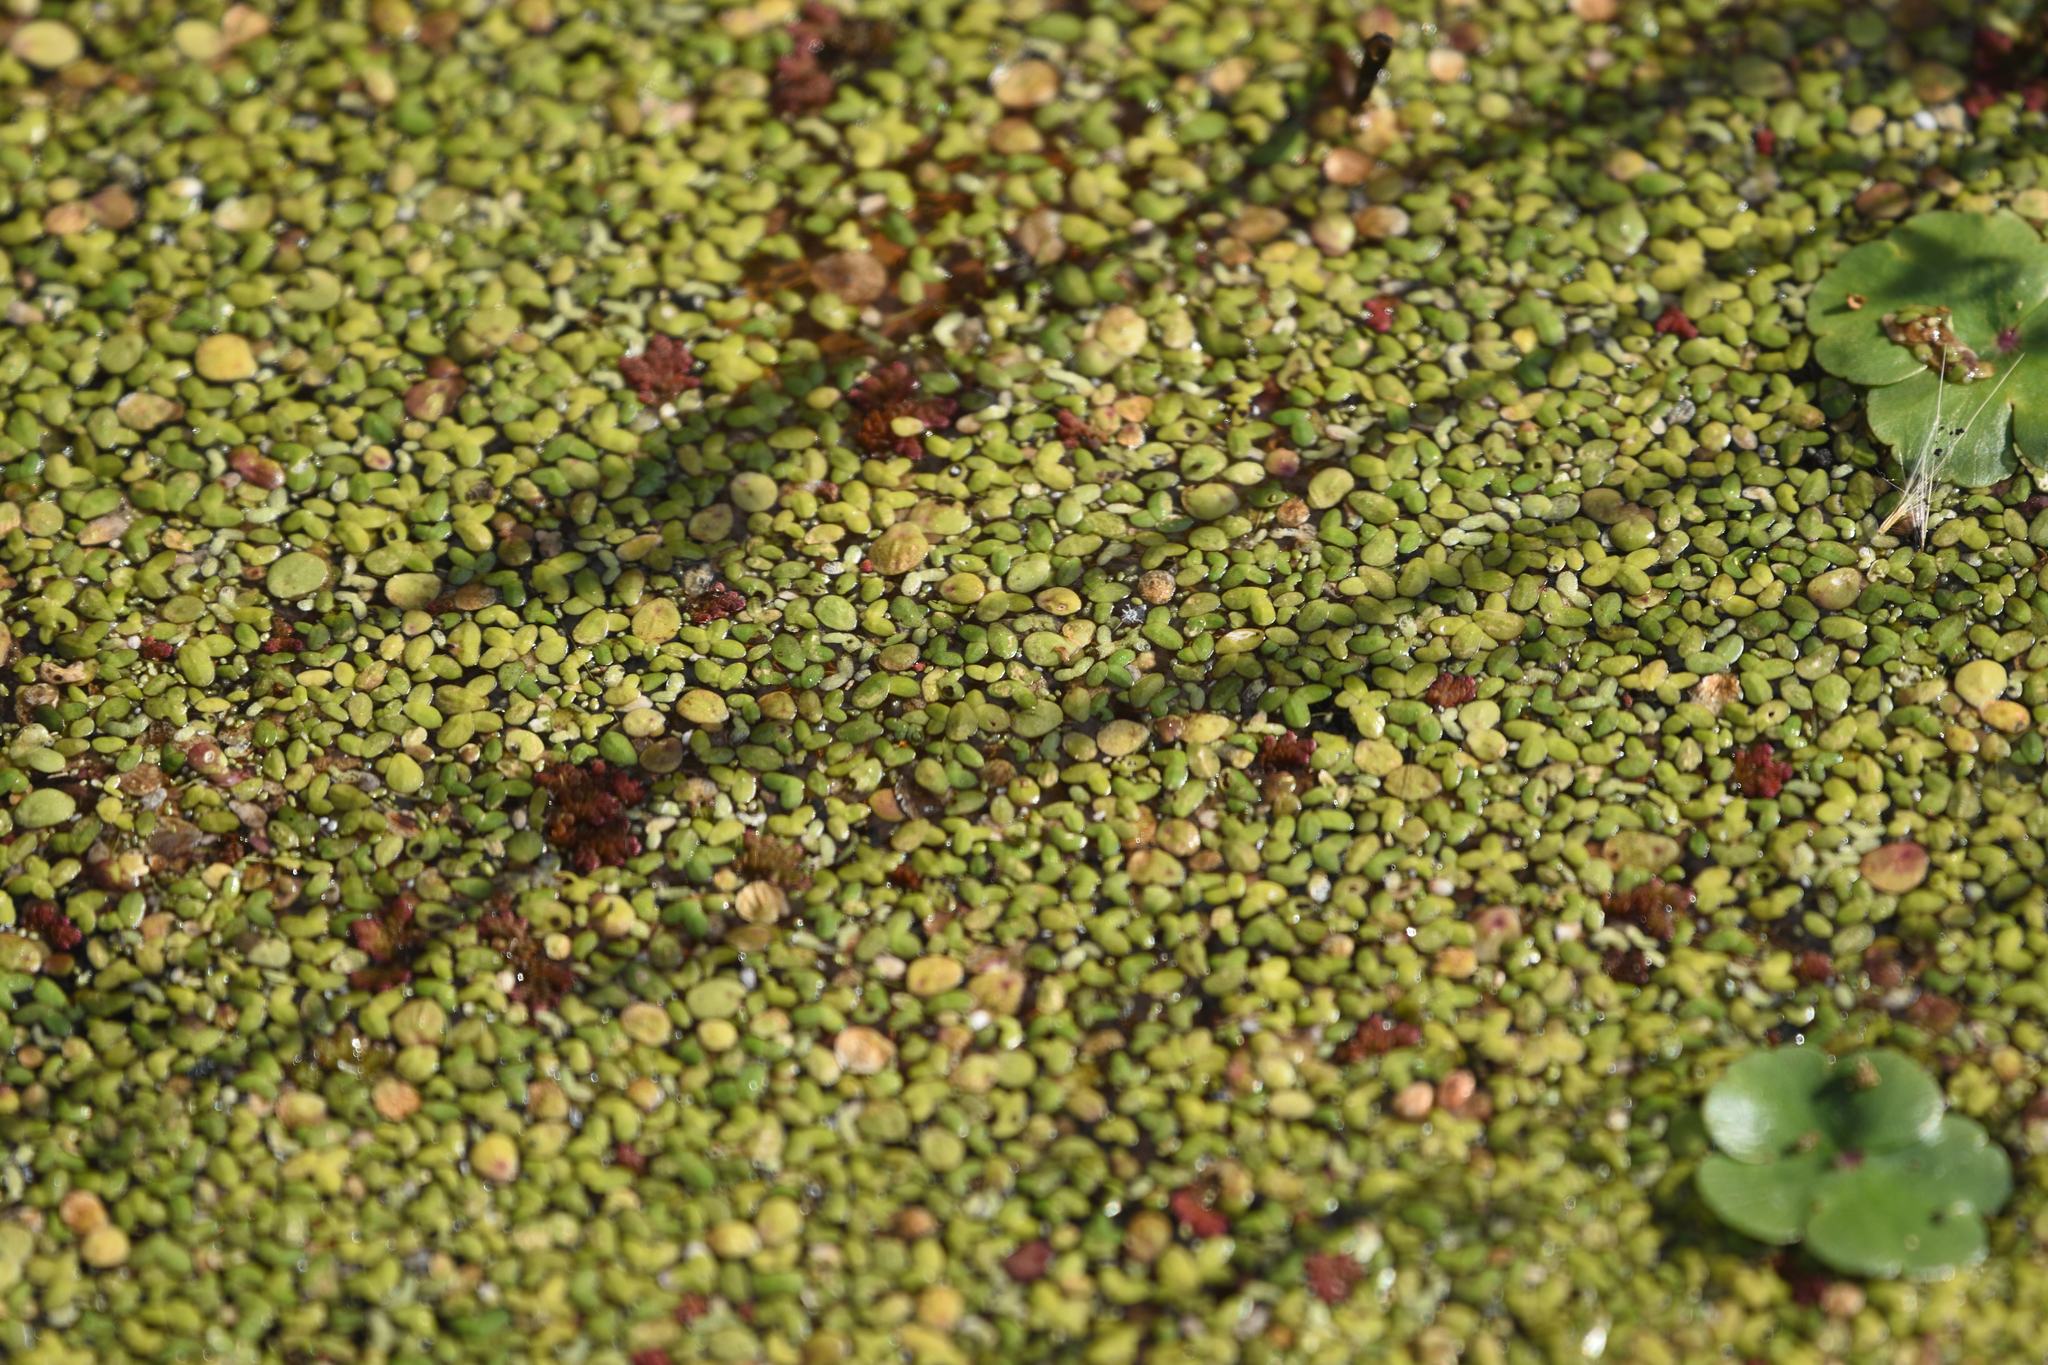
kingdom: Plantae
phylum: Tracheophyta
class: Liliopsida
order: Alismatales
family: Araceae
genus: Lemna
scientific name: Lemna minor
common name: Common duckweed
